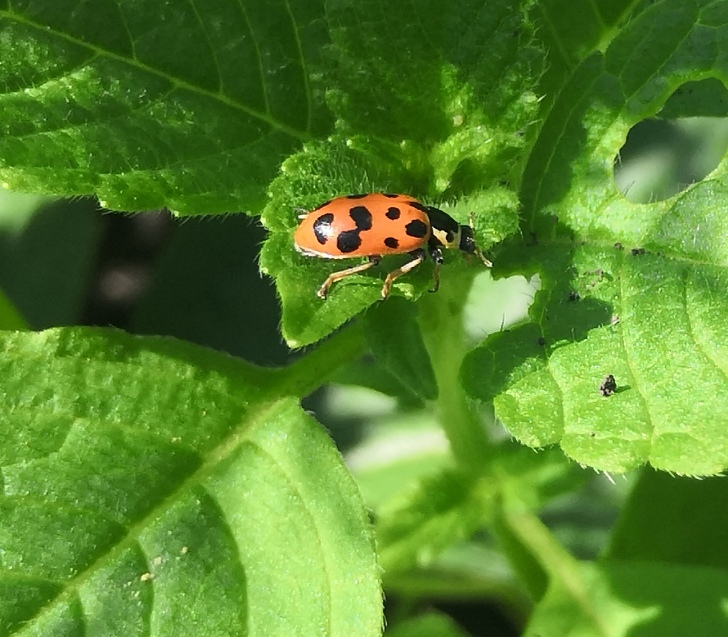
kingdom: Animalia
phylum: Arthropoda
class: Insecta
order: Coleoptera
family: Coccinellidae
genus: Hippodamia
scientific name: Hippodamia tredecimpunctata
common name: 13-spot ladybird
